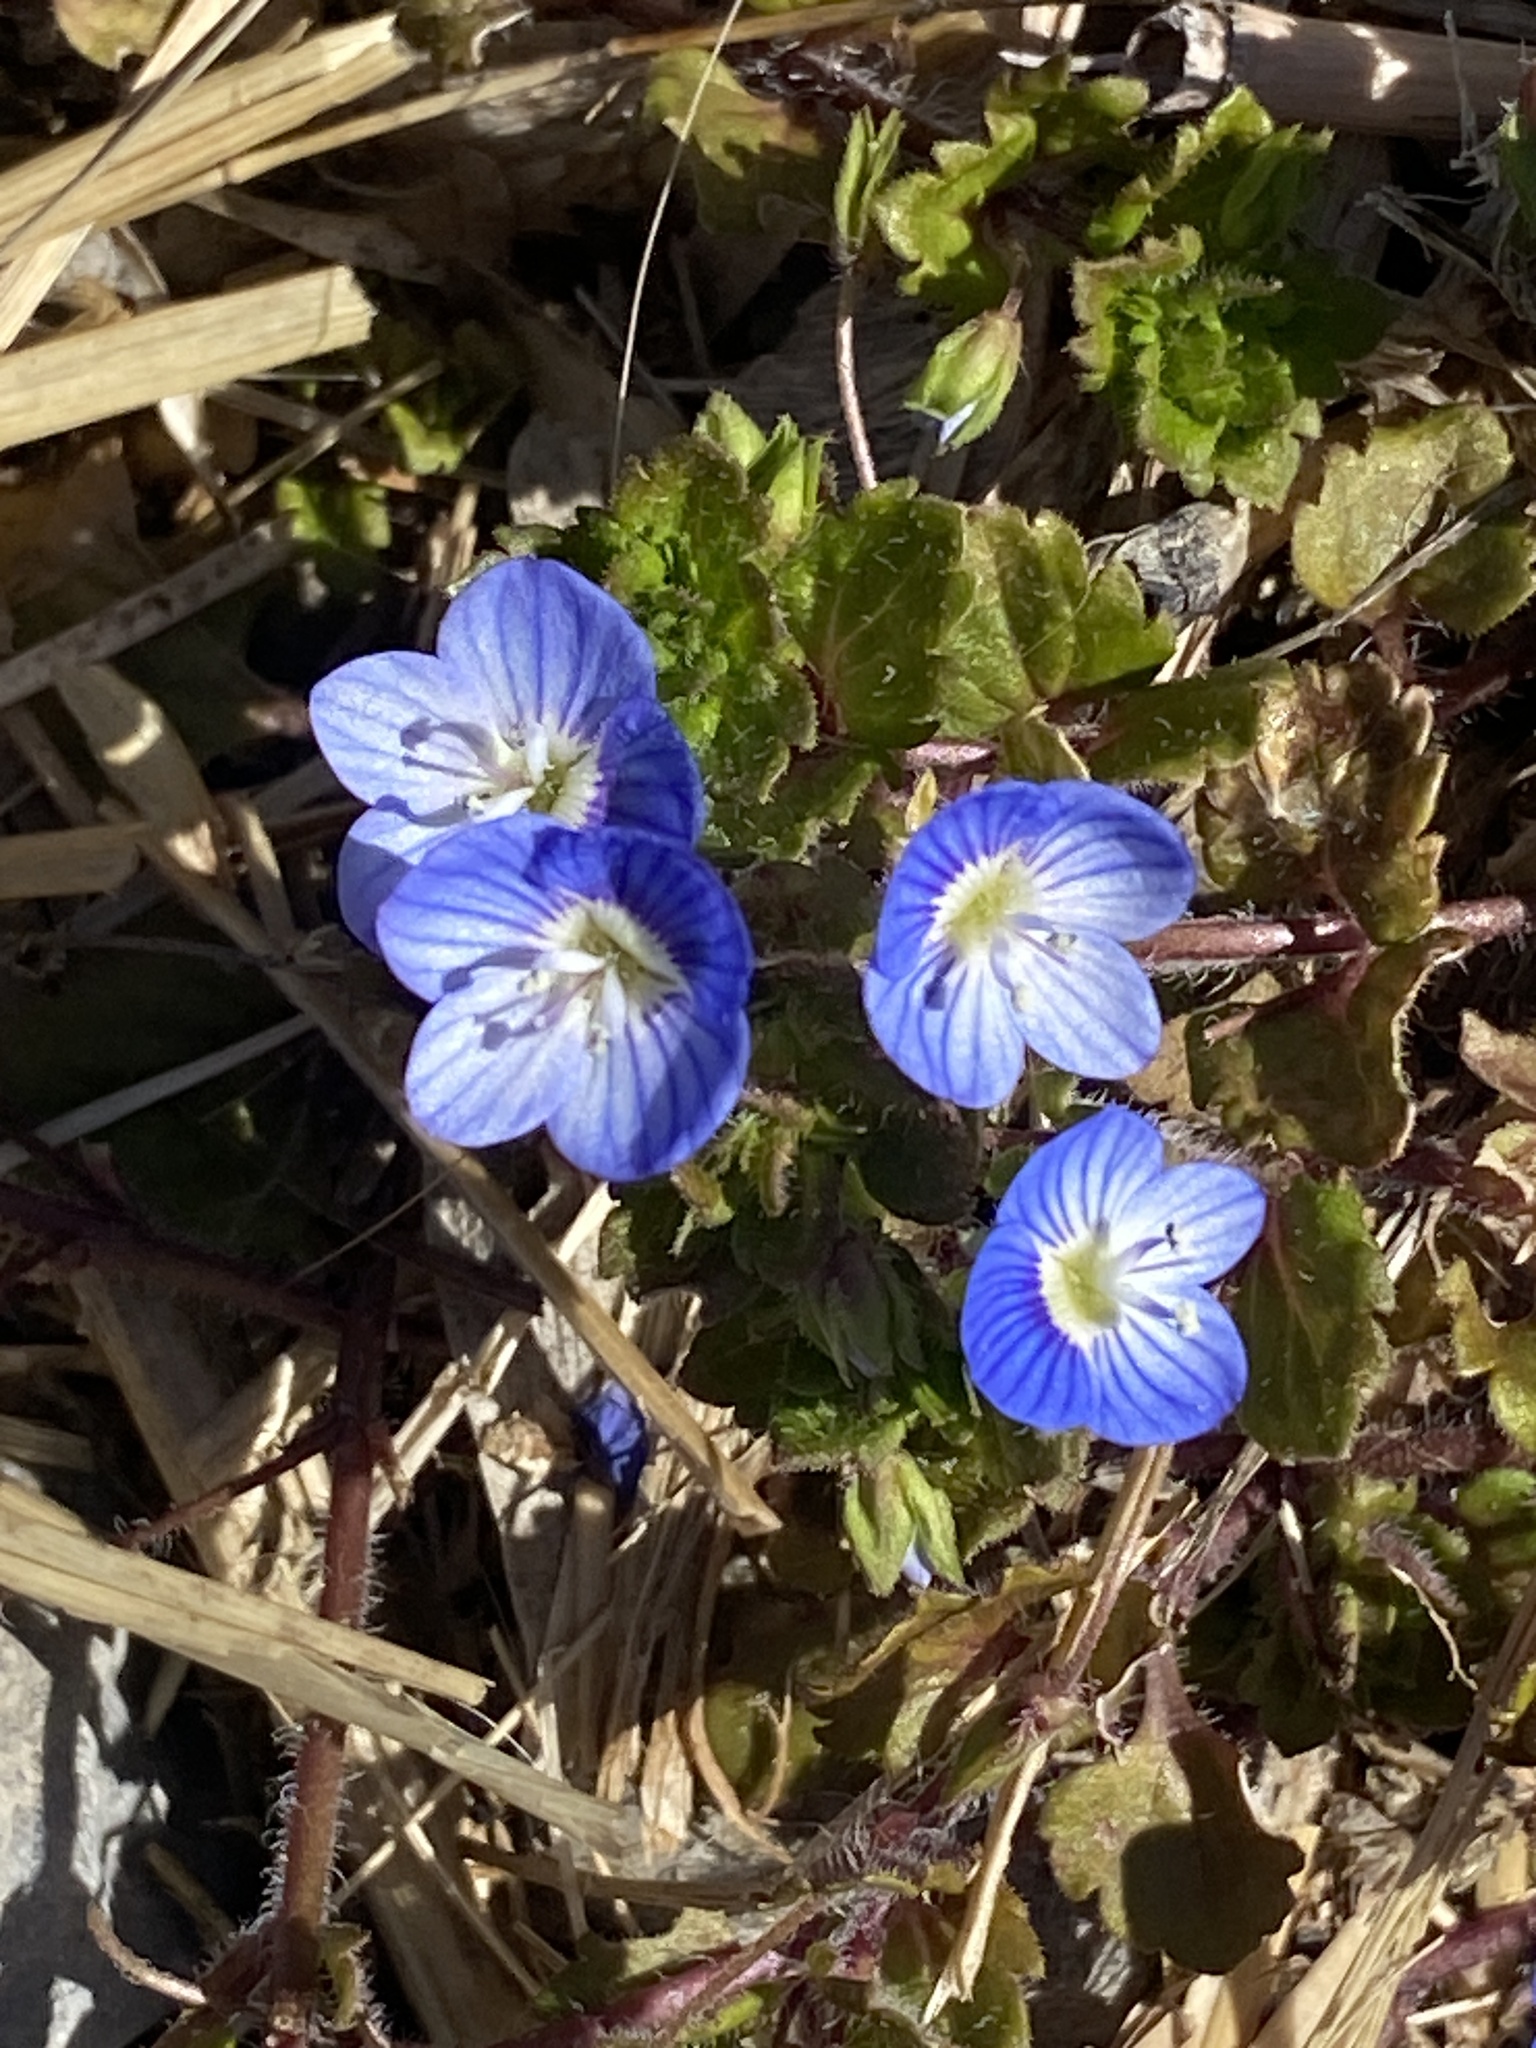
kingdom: Plantae
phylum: Tracheophyta
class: Magnoliopsida
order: Lamiales
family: Plantaginaceae
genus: Veronica
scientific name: Veronica persica
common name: Common field-speedwell
